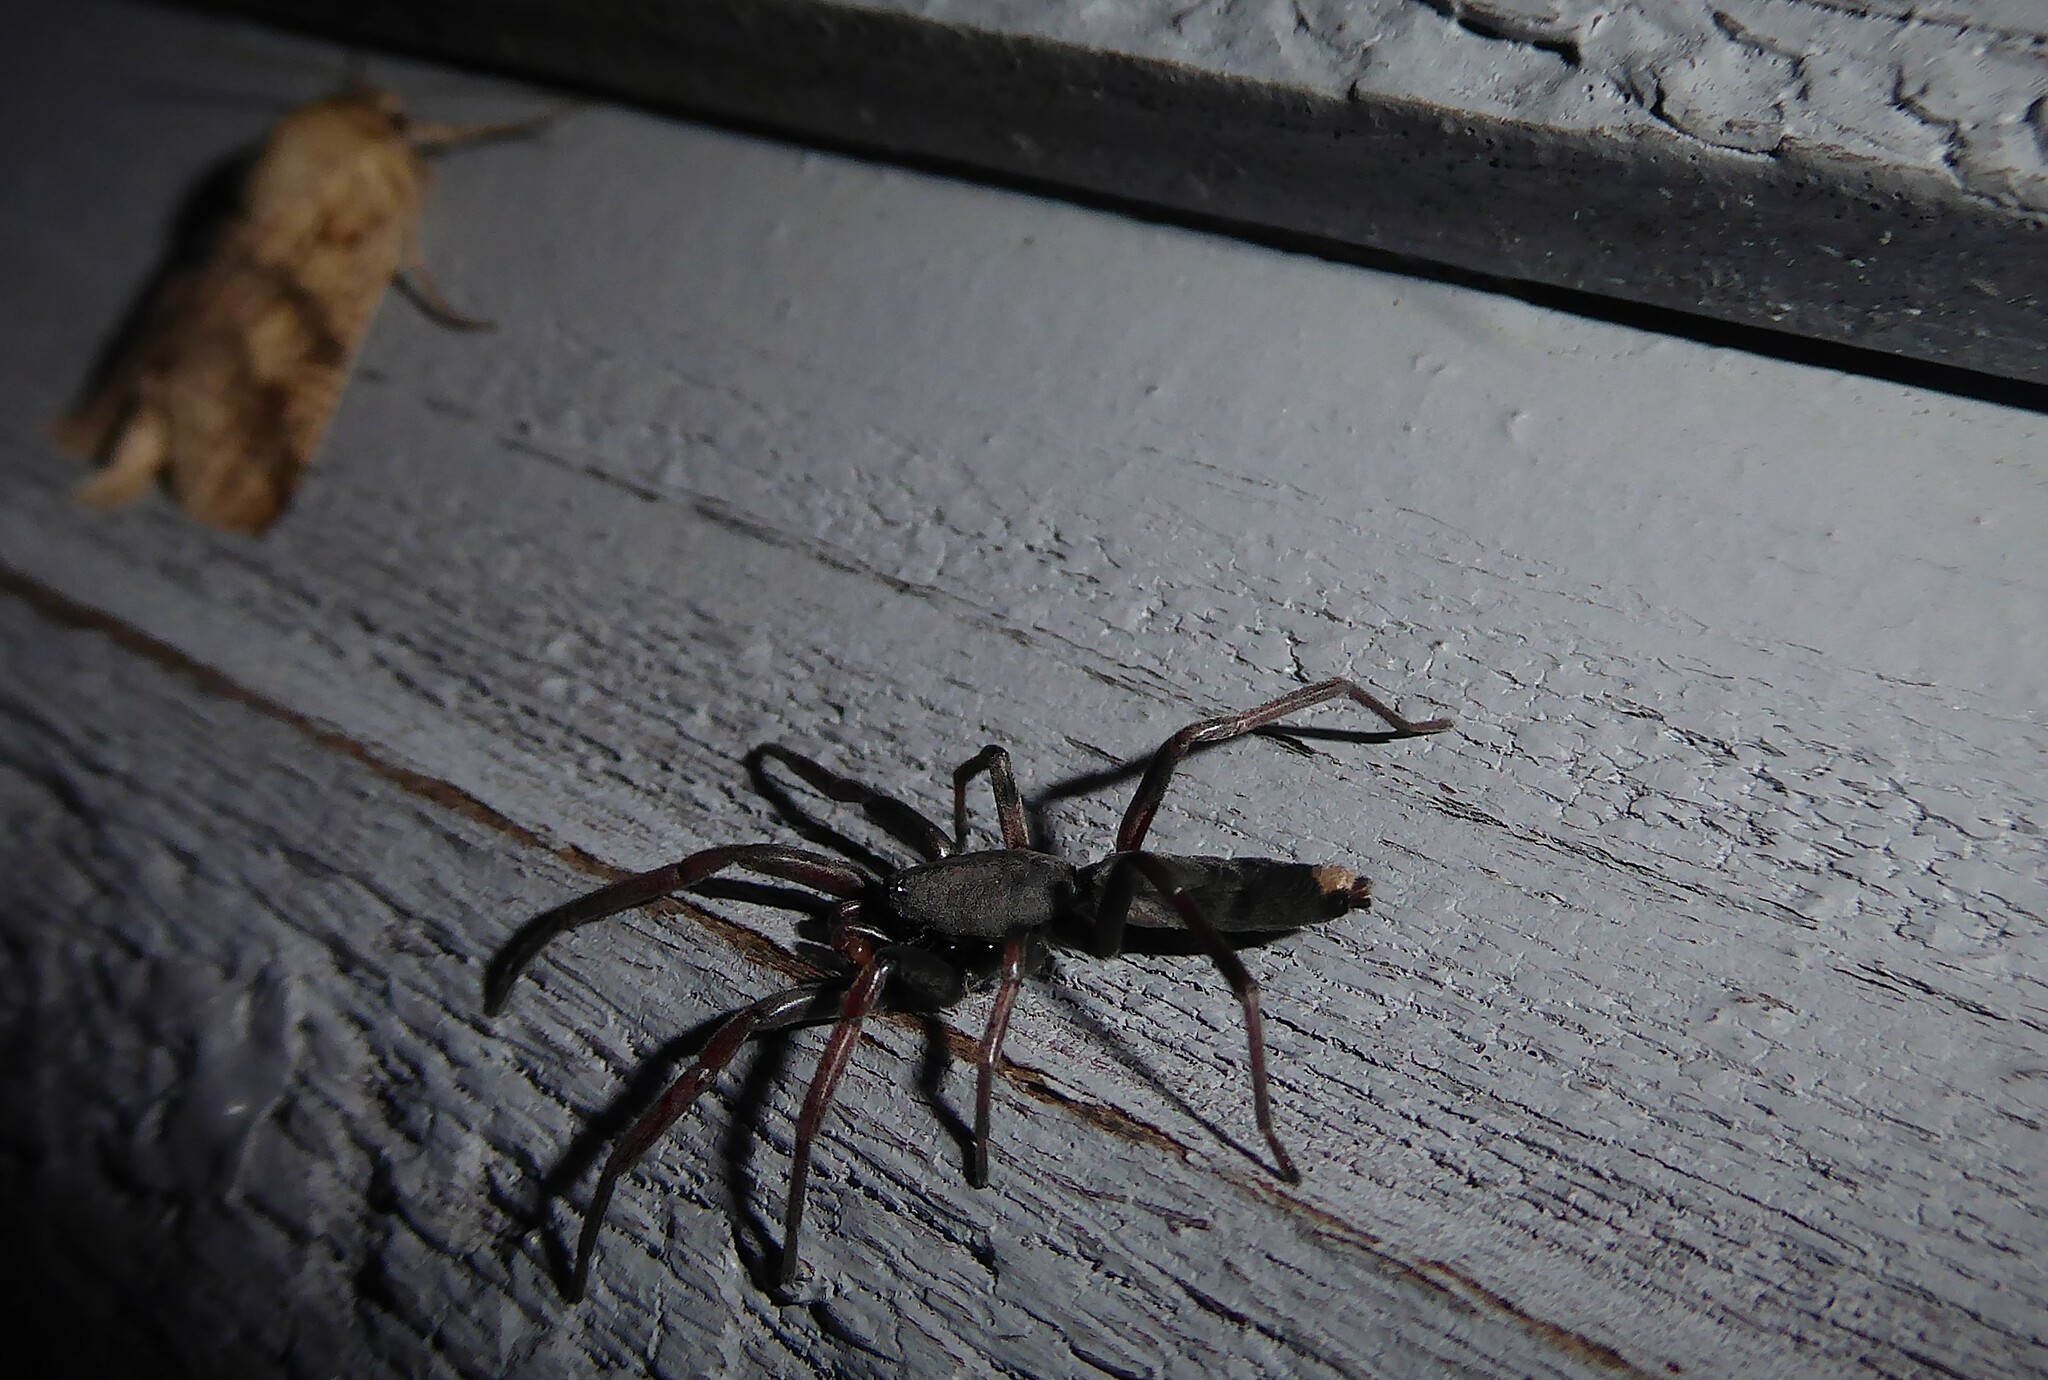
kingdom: Animalia
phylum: Arthropoda
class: Arachnida
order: Araneae
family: Lamponidae
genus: Lampona
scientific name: Lampona cylindrata
